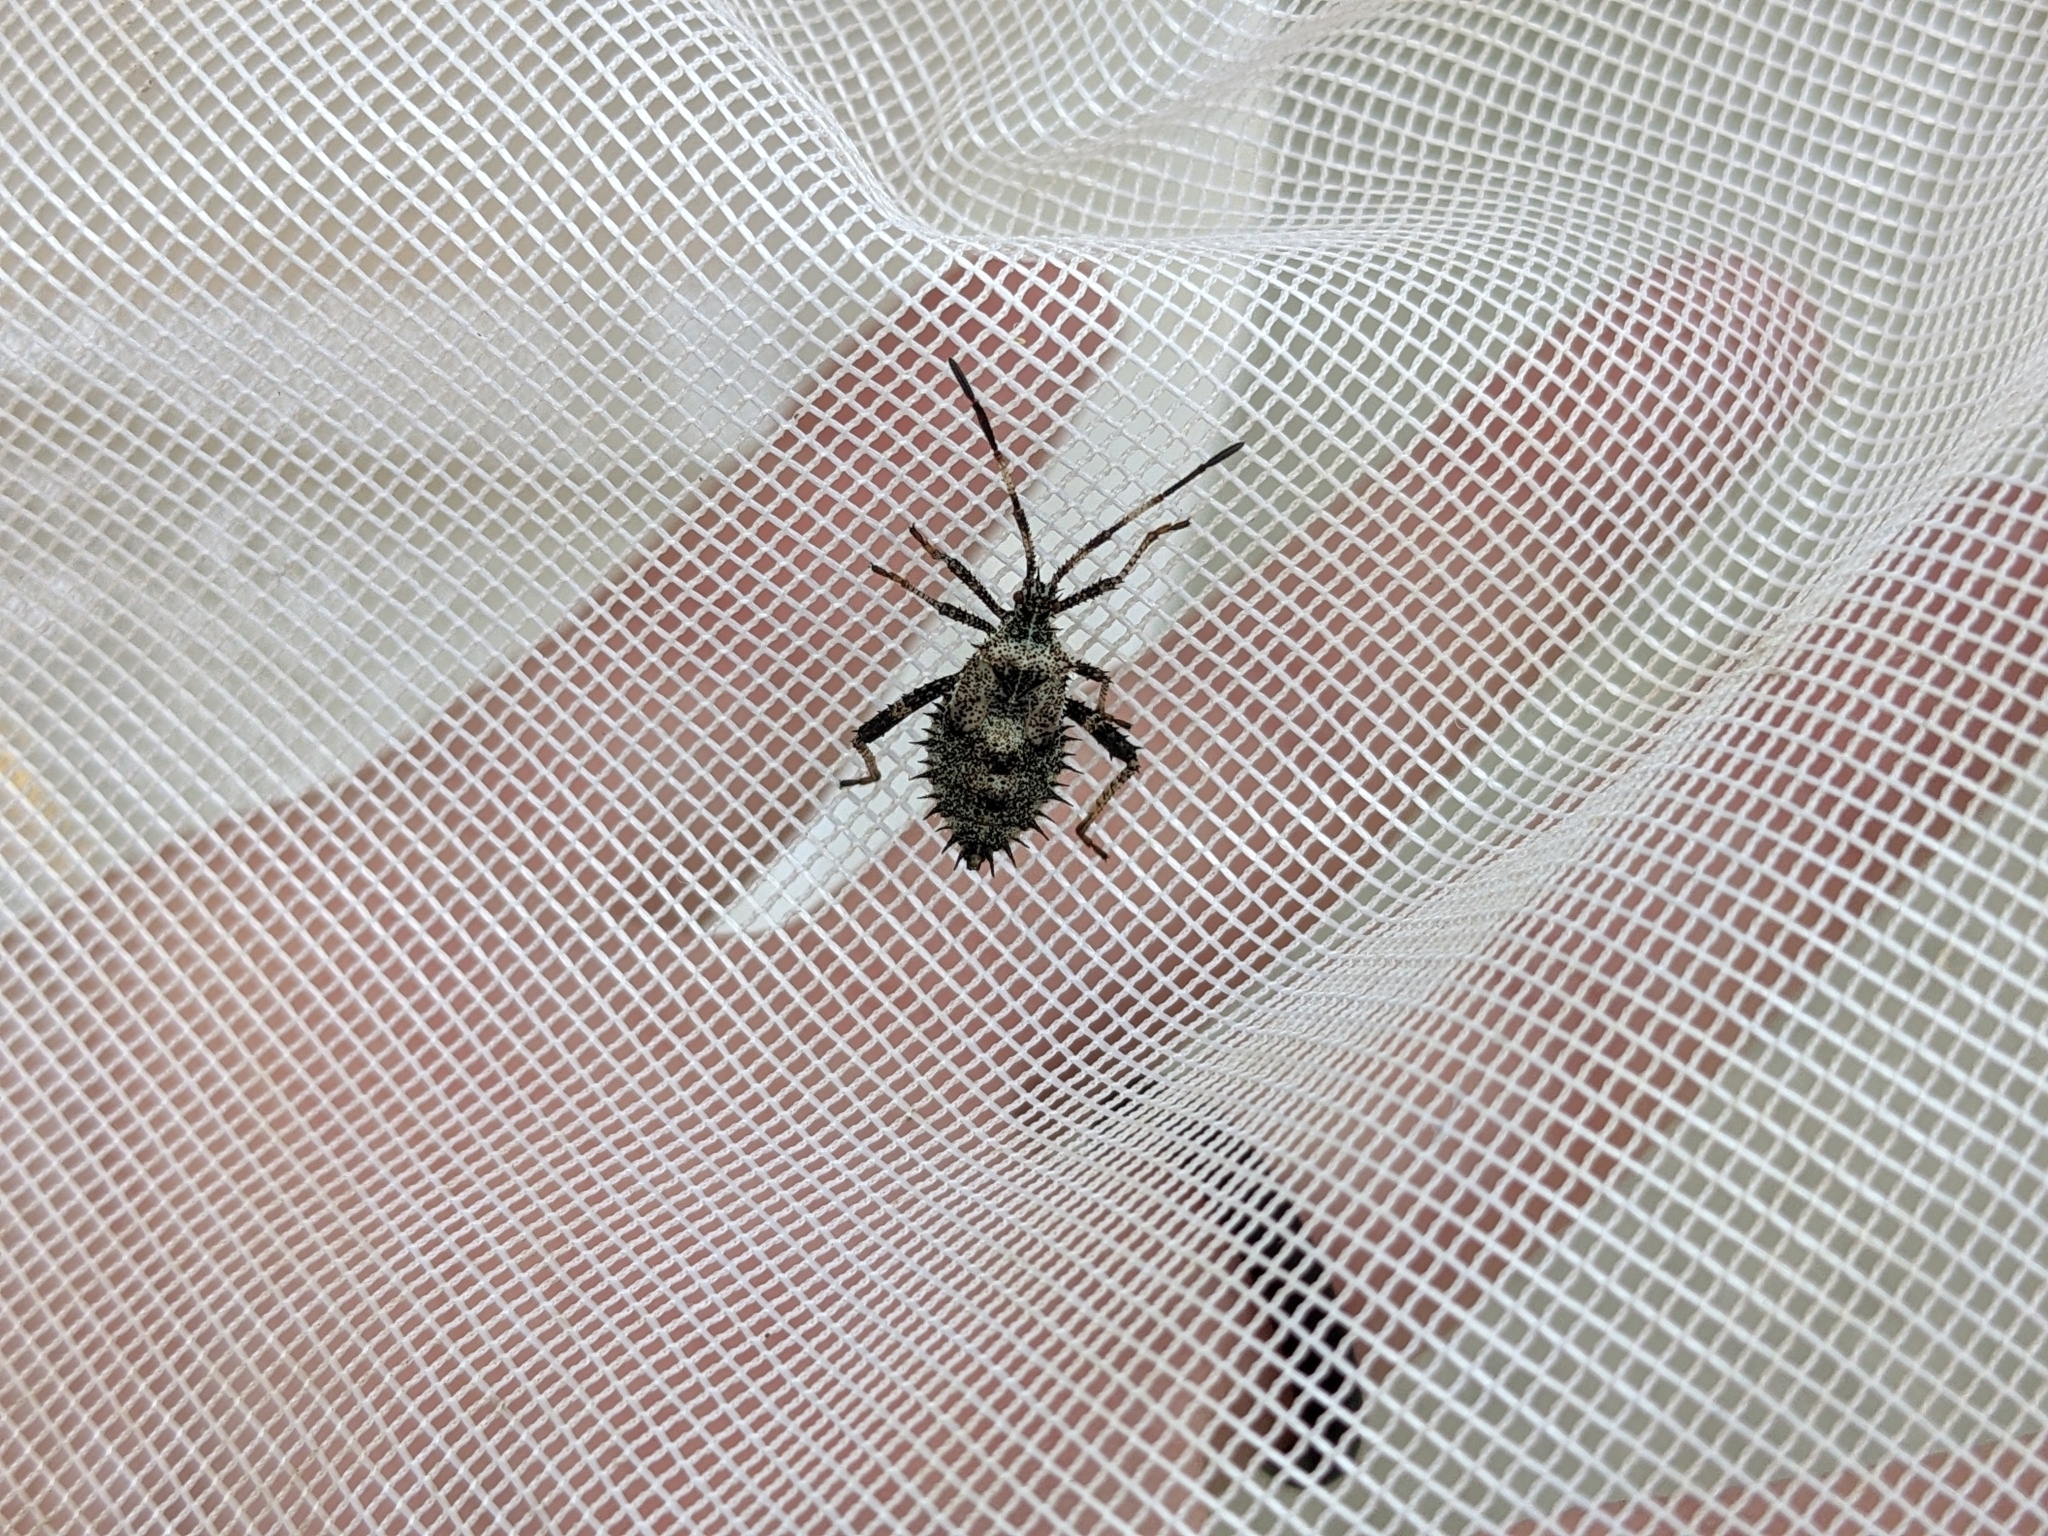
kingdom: Animalia
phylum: Arthropoda
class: Insecta
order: Hemiptera
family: Coreidae
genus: Euthochtha
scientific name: Euthochtha galeator
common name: Helmeted squash bug
